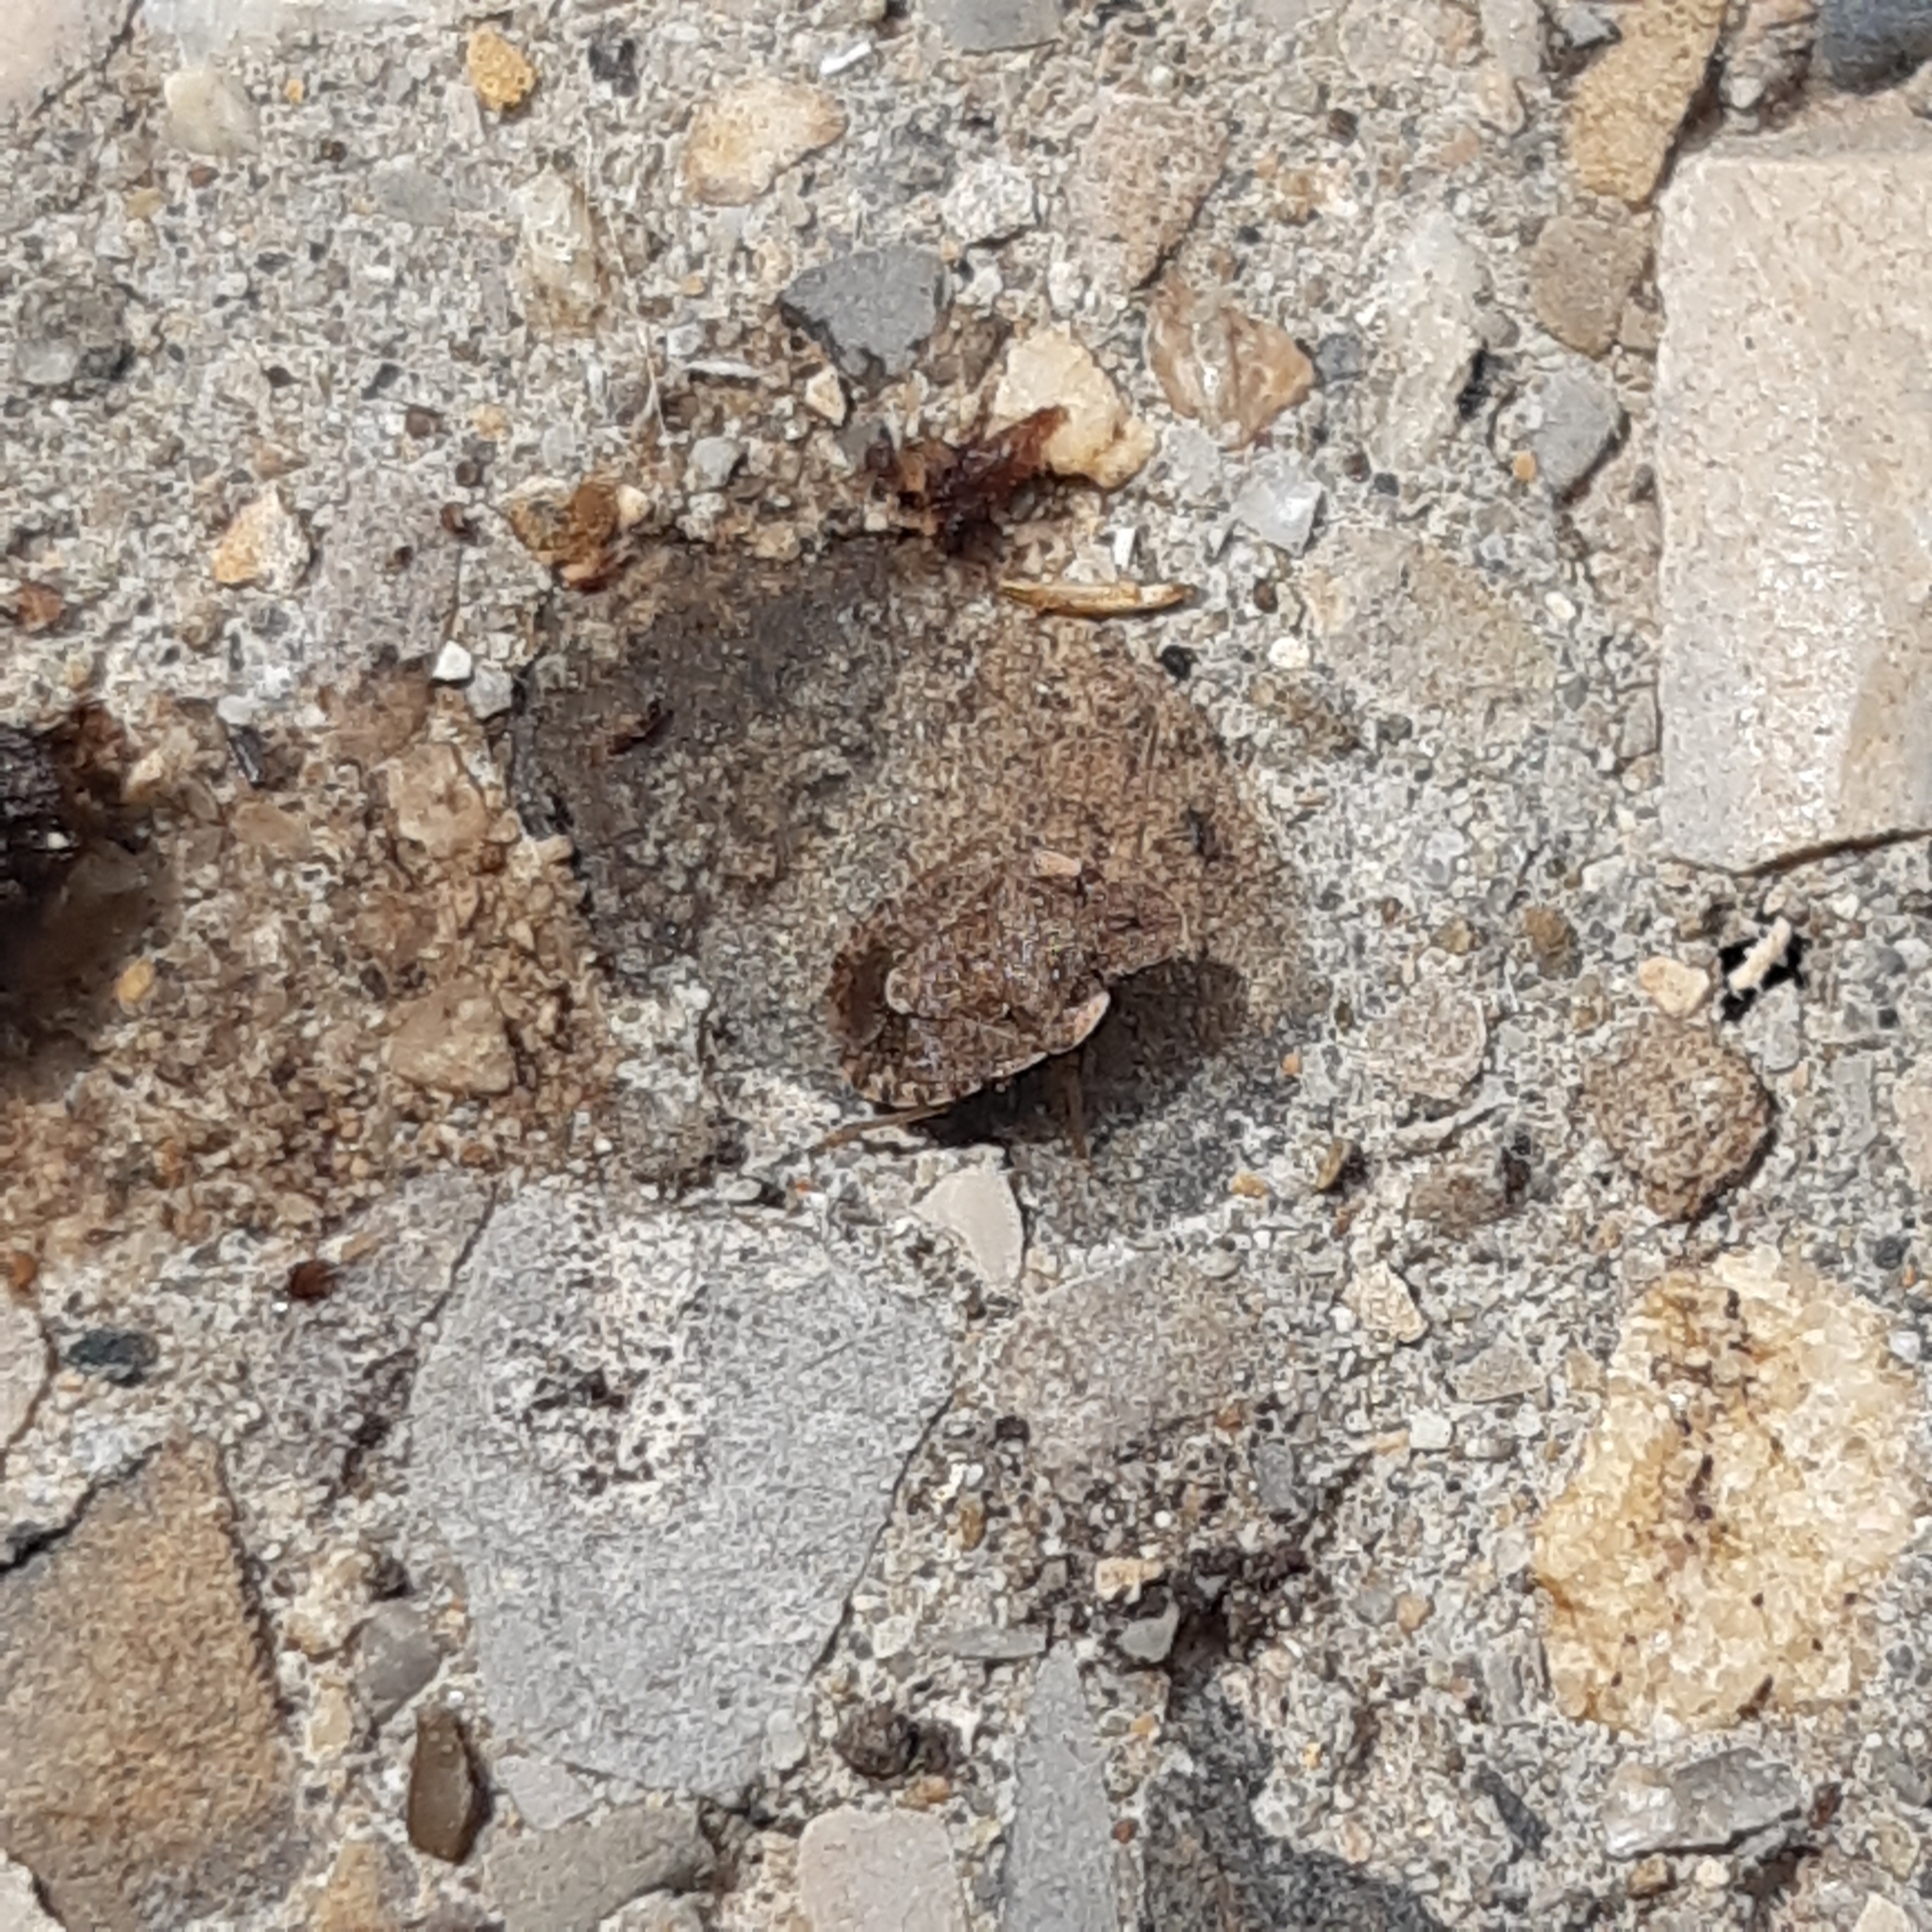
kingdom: Animalia
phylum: Arthropoda
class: Insecta
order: Hemiptera
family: Pentatomidae
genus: Sciocoris
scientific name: Sciocoris sideritidis
